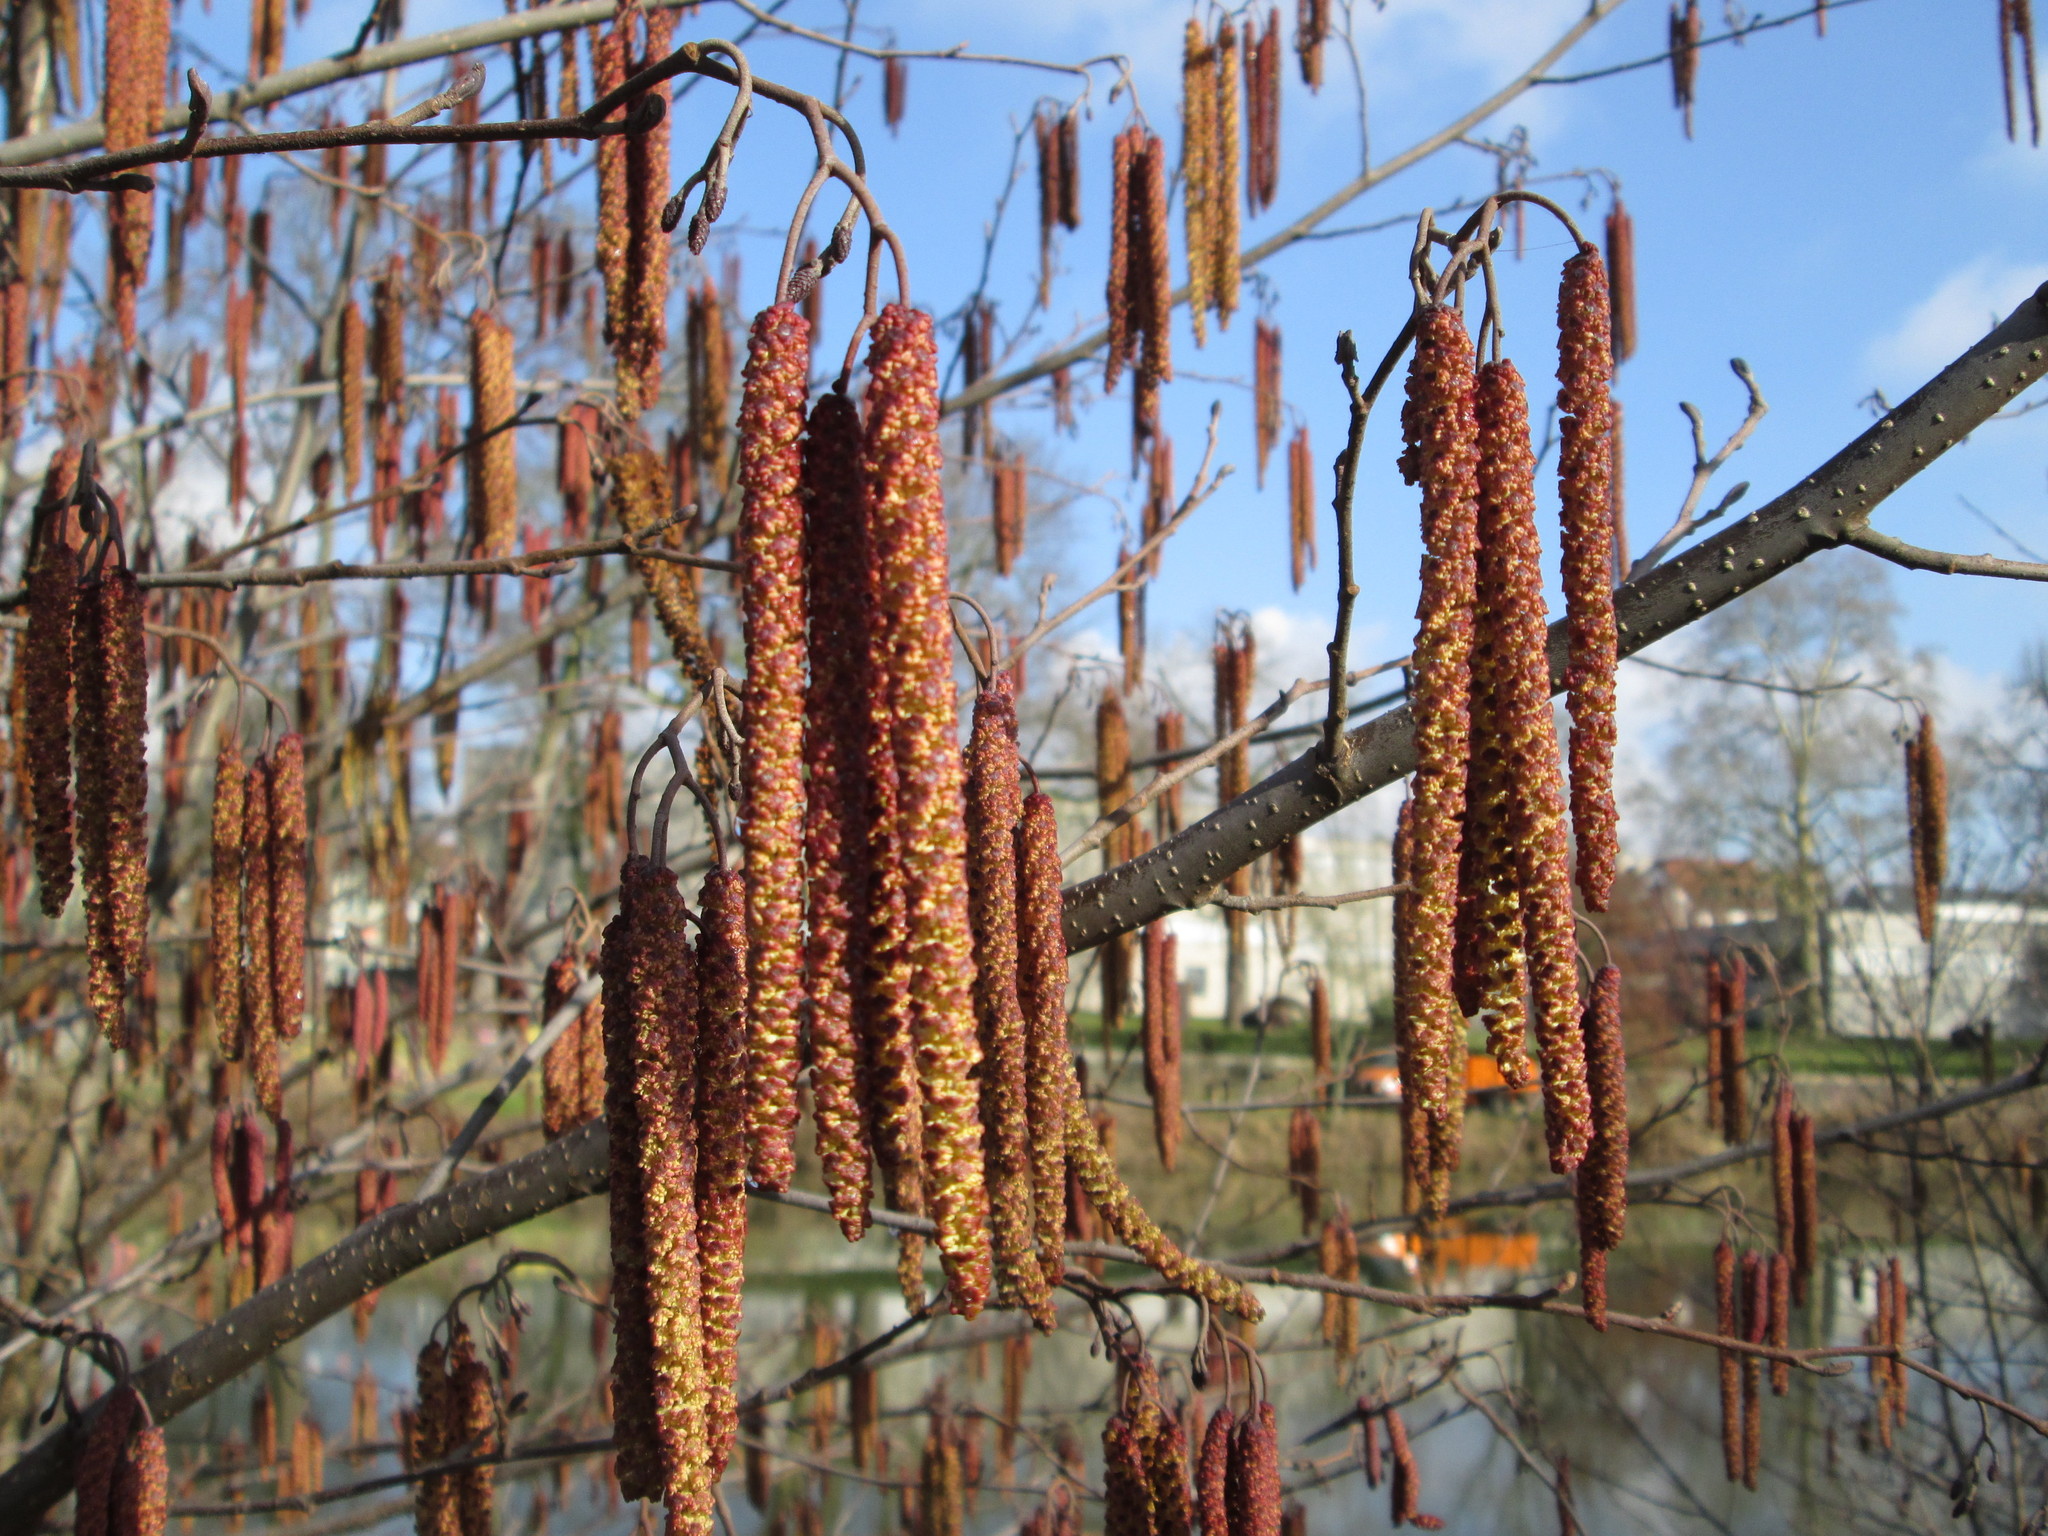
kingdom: Plantae
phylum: Tracheophyta
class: Magnoliopsida
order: Fagales
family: Betulaceae
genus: Alnus
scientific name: Alnus glutinosa
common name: Black alder
